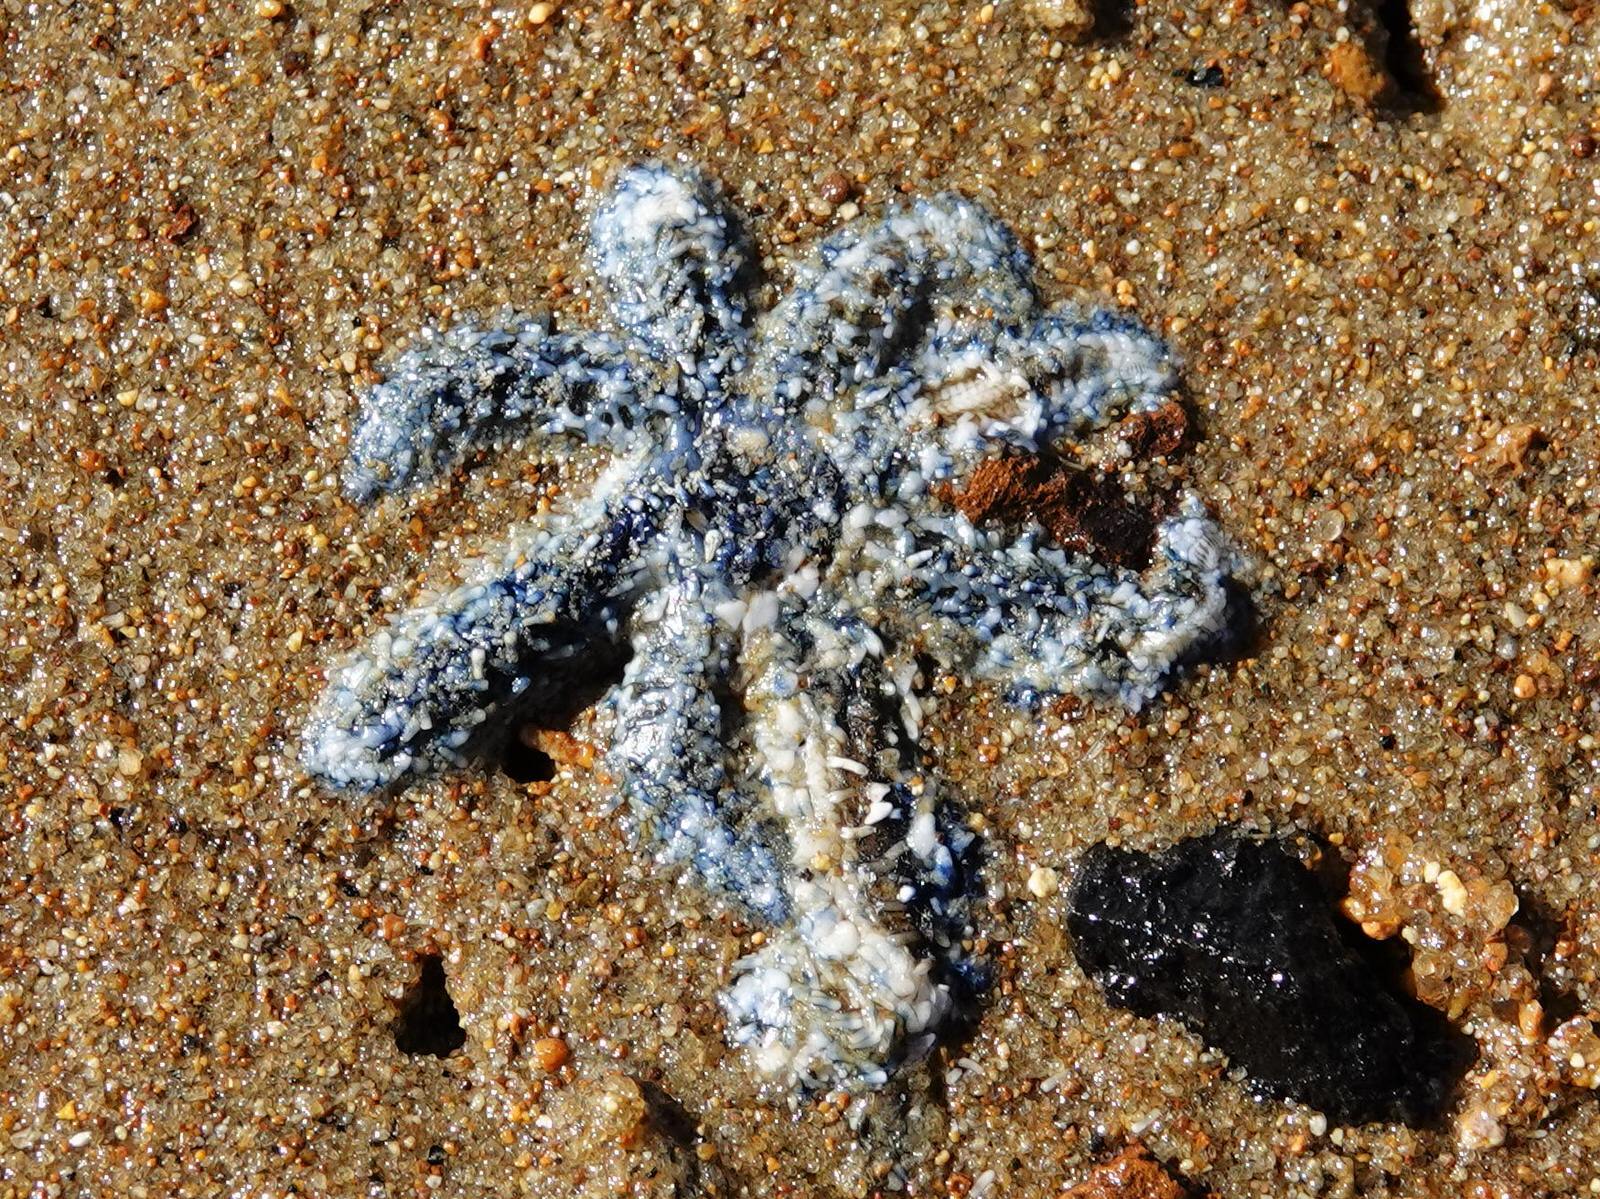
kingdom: Animalia
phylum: Echinodermata
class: Asteroidea
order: Forcipulatida
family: Asteriidae
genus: Coscinasterias
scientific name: Coscinasterias muricata
